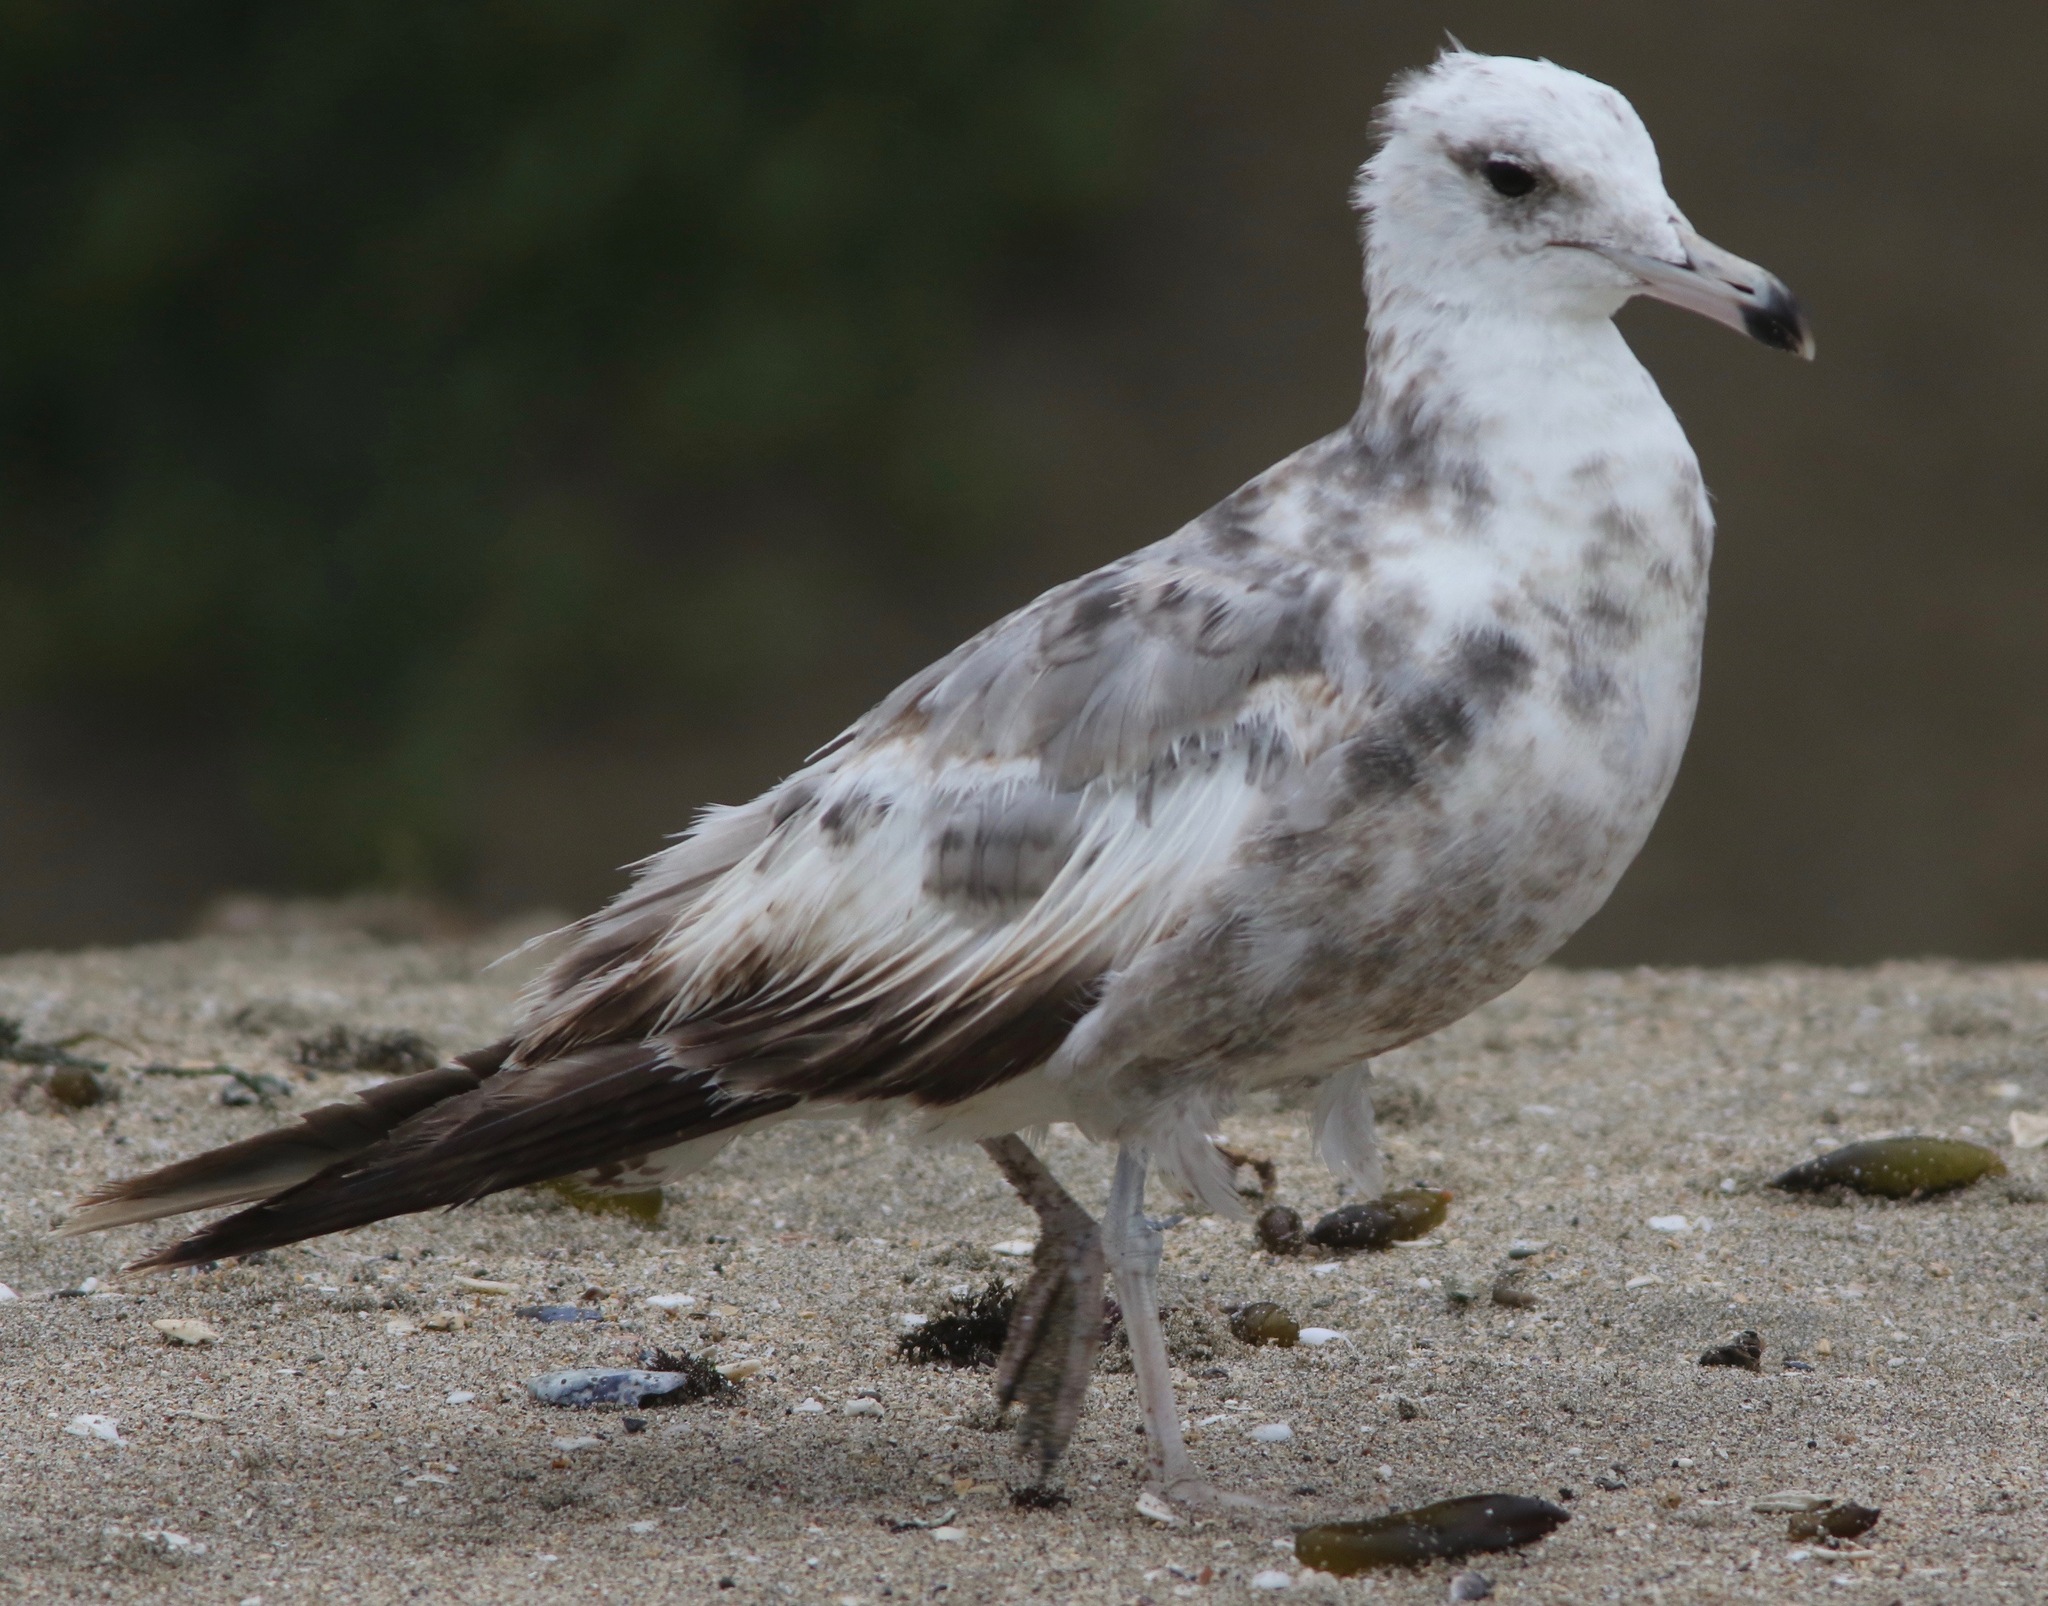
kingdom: Animalia
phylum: Chordata
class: Aves
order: Charadriiformes
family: Laridae
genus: Larus
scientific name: Larus californicus
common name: California gull
